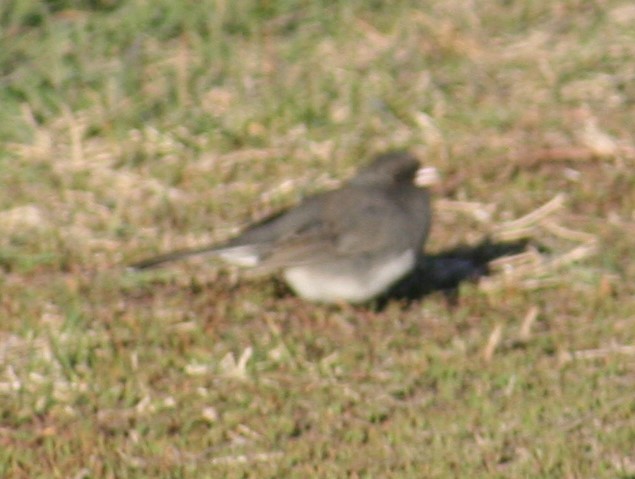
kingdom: Animalia
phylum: Chordata
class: Aves
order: Passeriformes
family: Passerellidae
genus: Junco
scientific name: Junco hyemalis
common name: Dark-eyed junco
